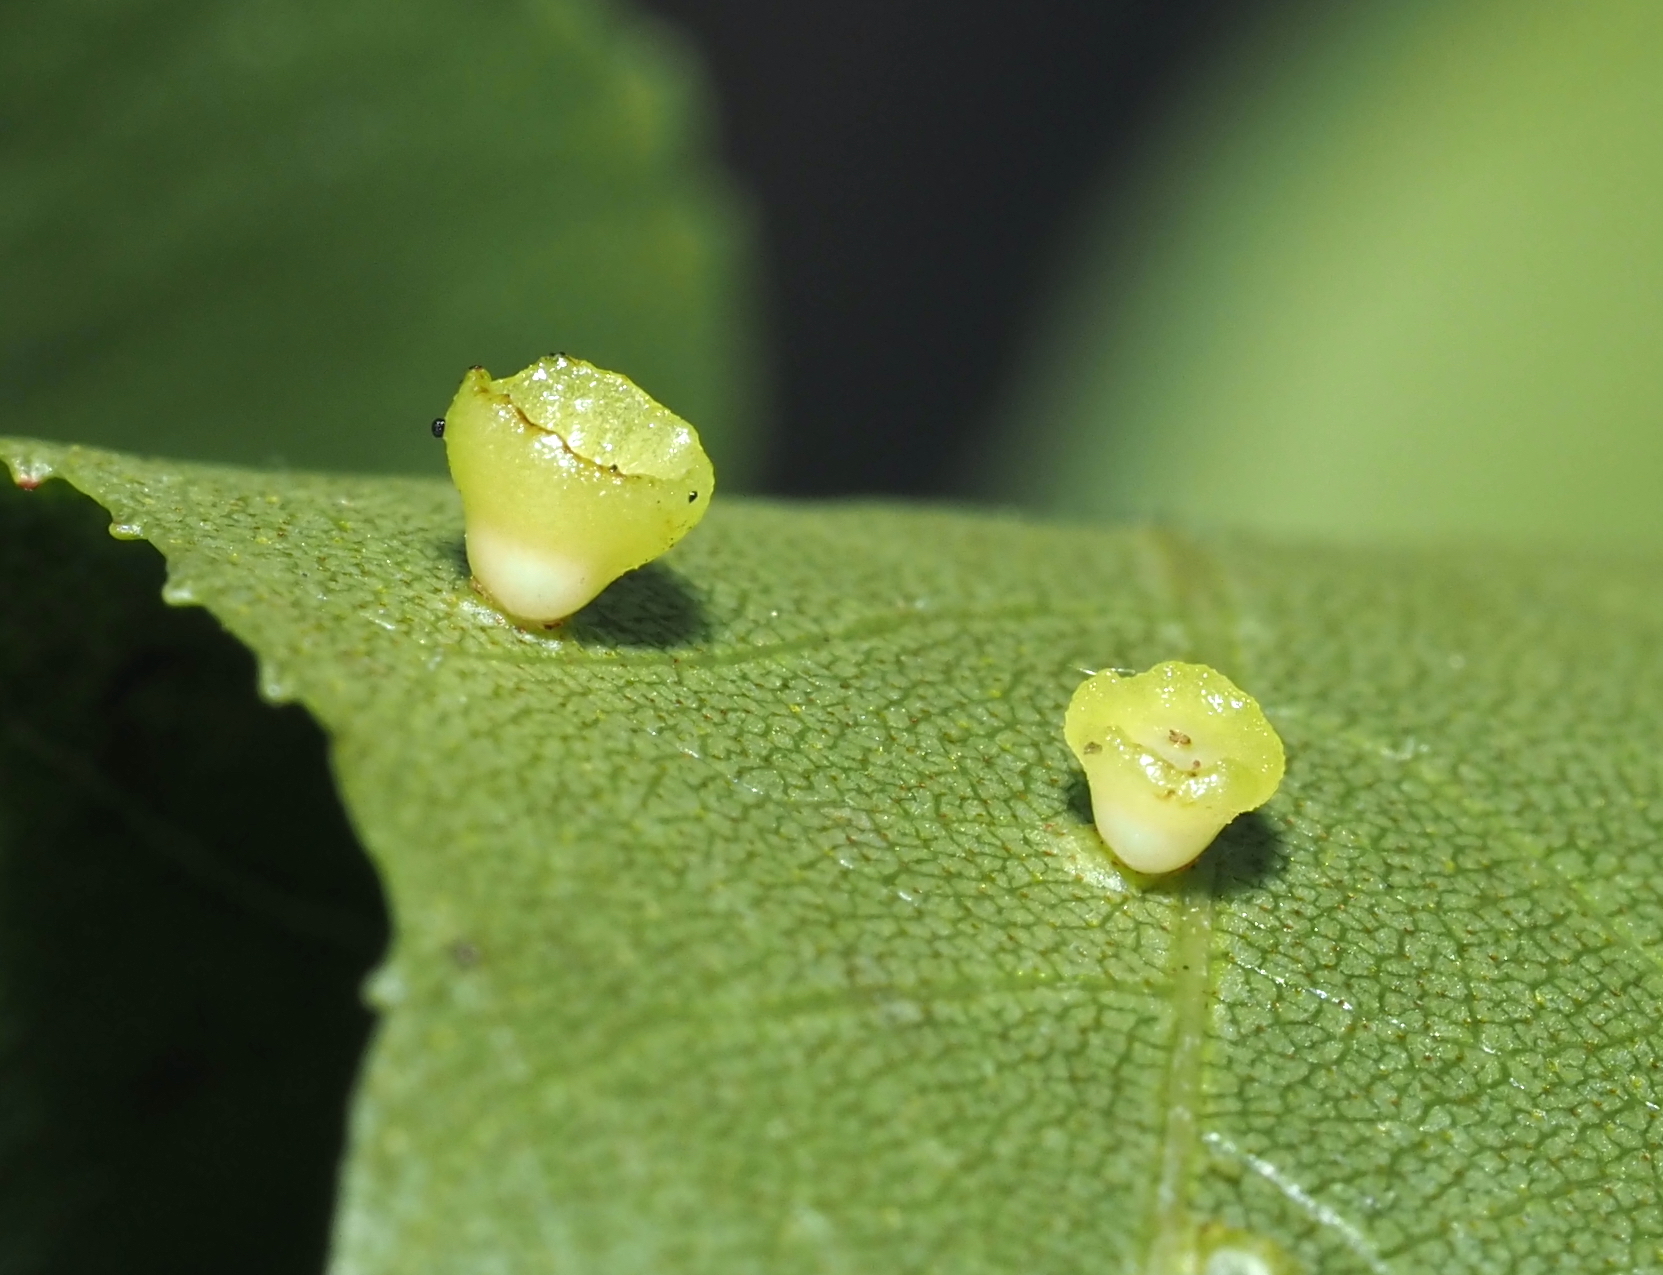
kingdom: Animalia
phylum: Arthropoda
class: Insecta
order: Diptera
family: Cecidomyiidae
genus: Caryomyia
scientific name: Caryomyia flaticrustum
